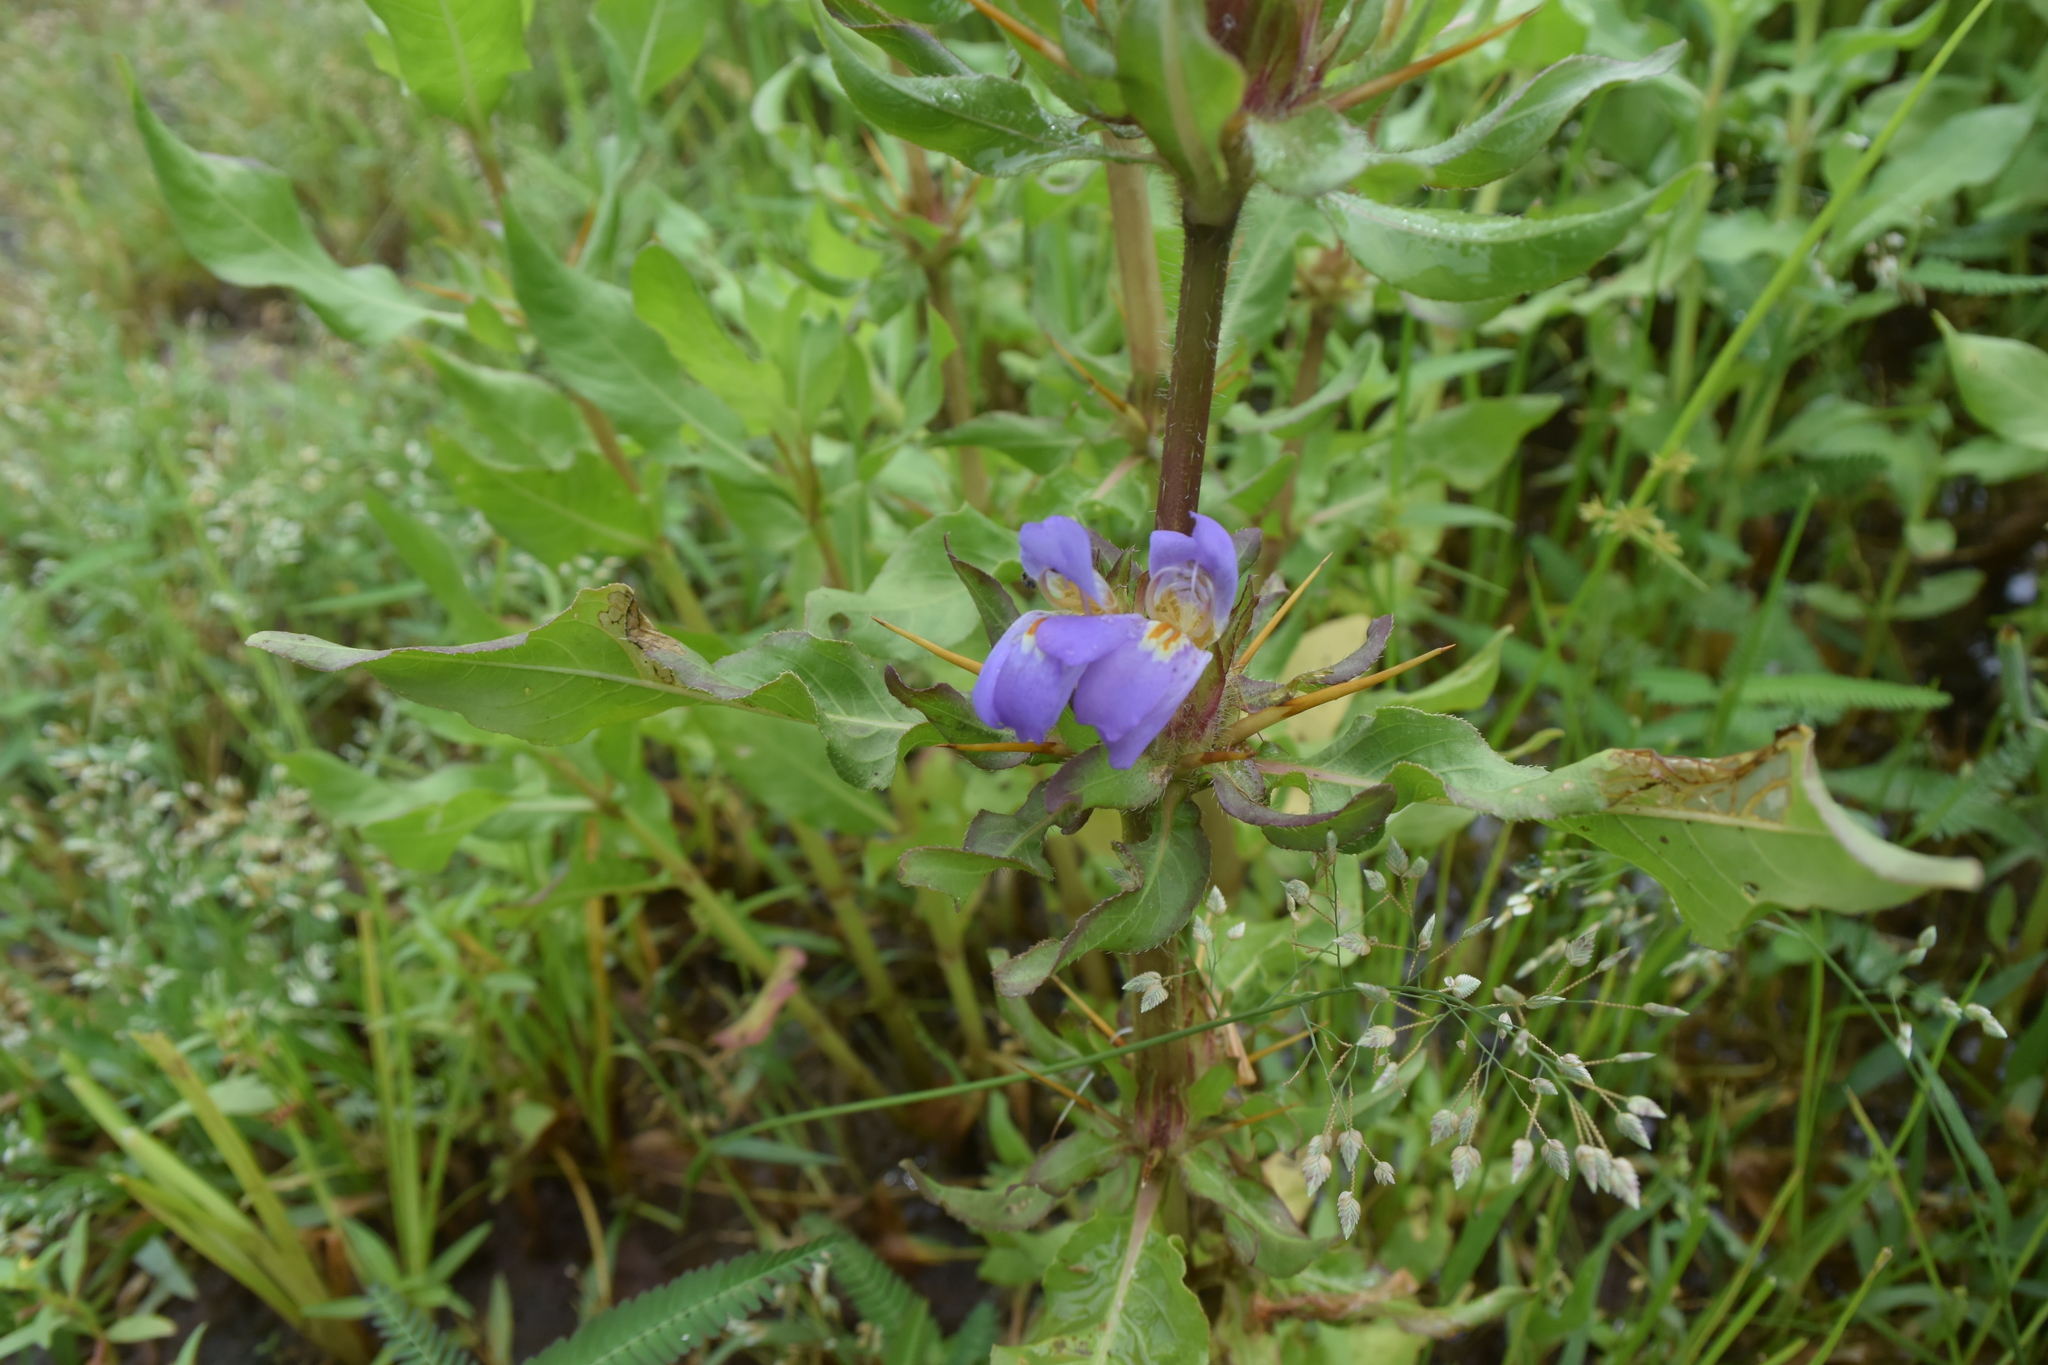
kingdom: Plantae
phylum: Tracheophyta
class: Magnoliopsida
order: Lamiales
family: Acanthaceae
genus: Hygrophila
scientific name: Hygrophila auriculata
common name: Hygrophila
